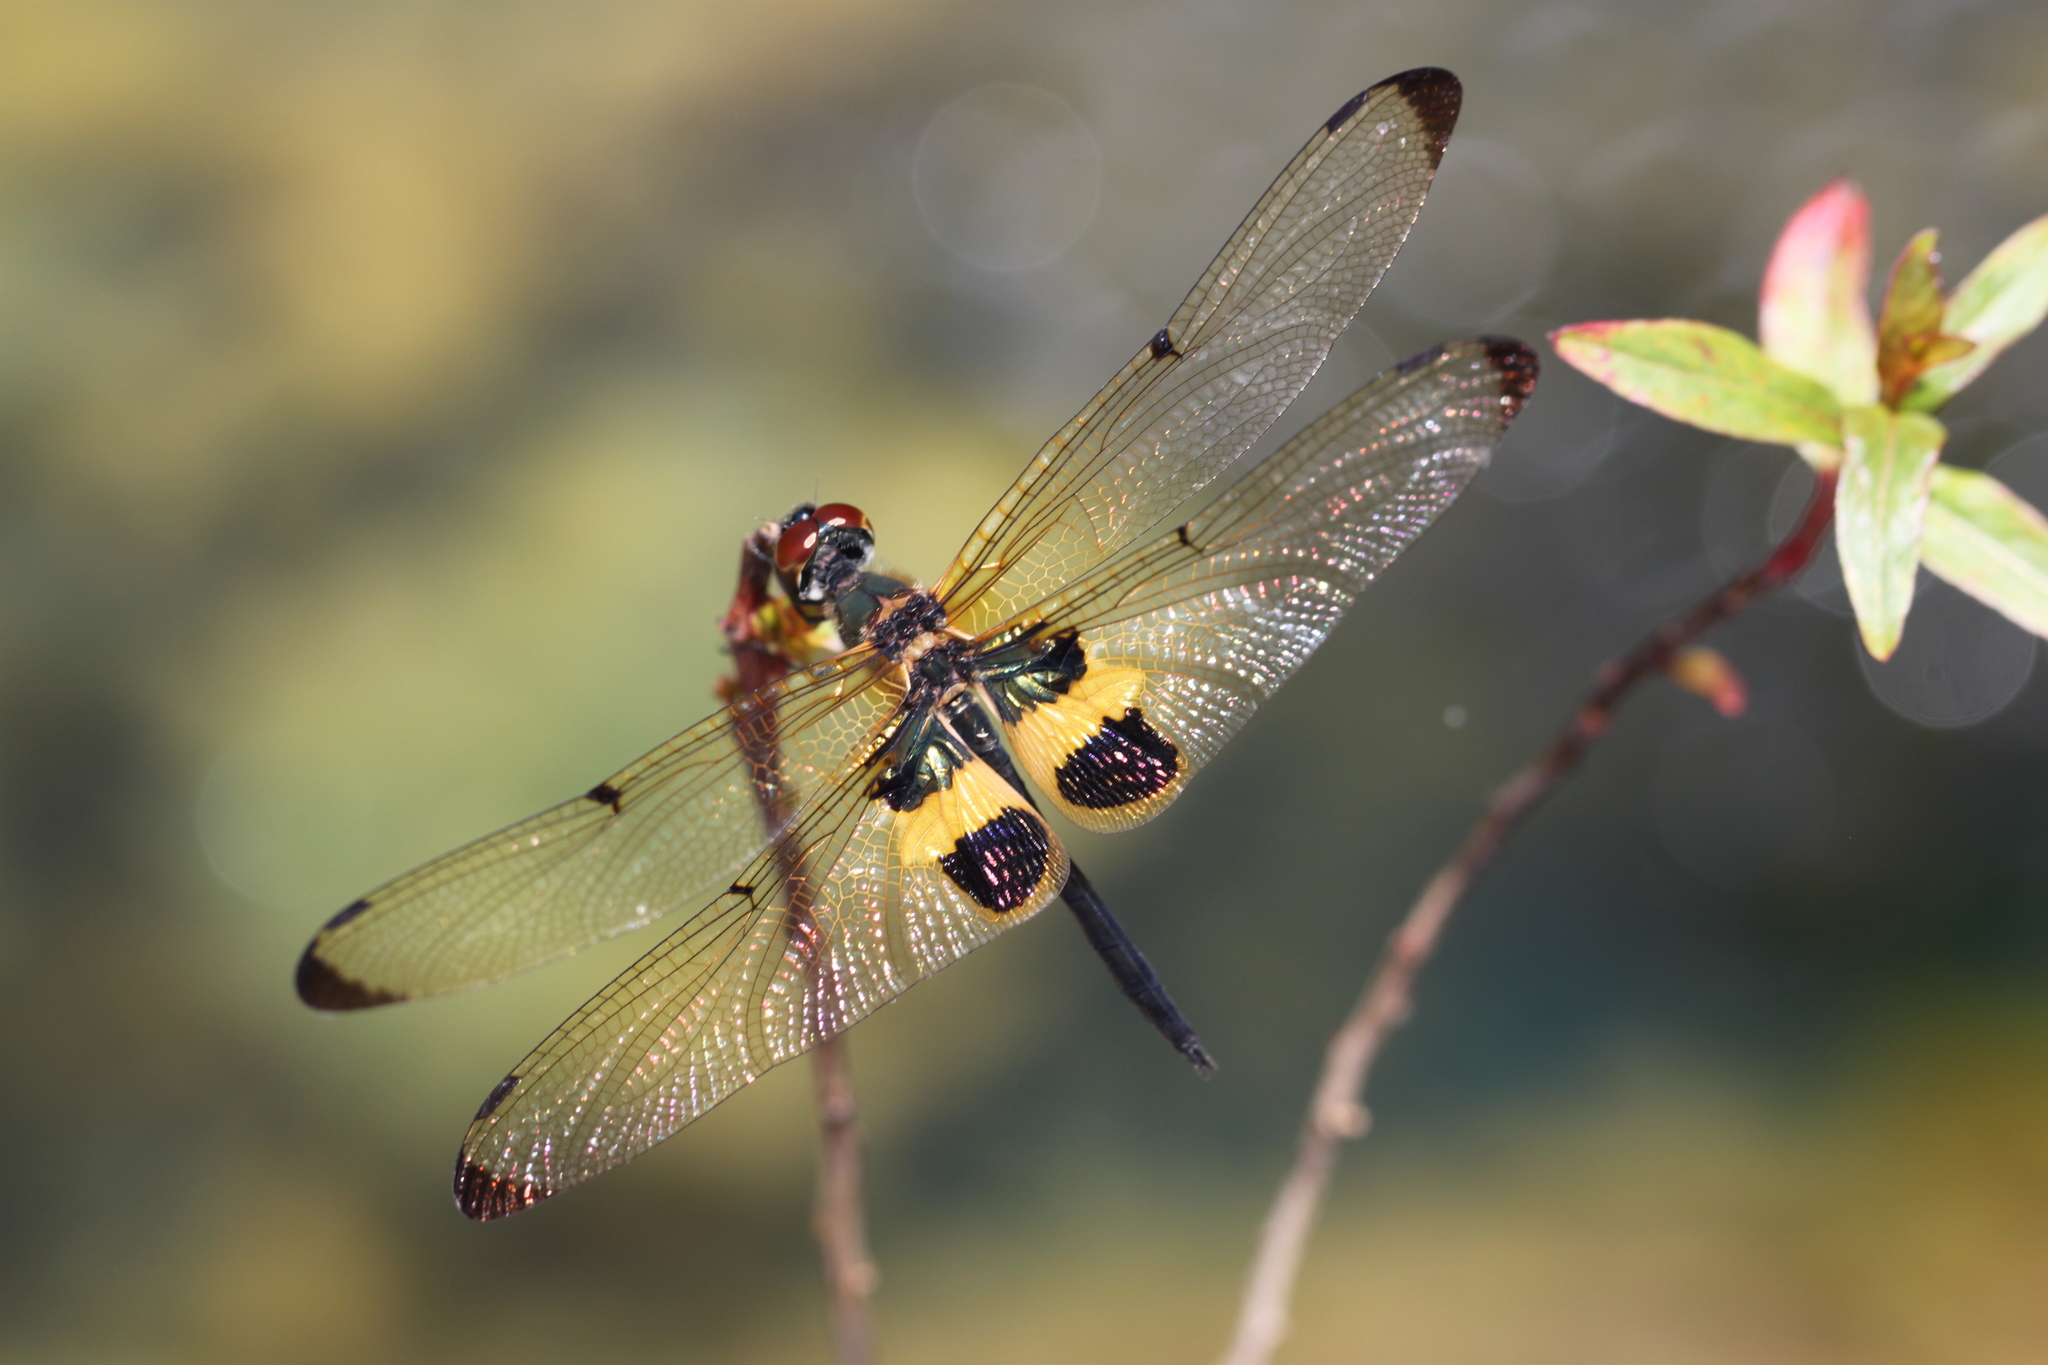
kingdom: Animalia
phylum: Arthropoda
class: Insecta
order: Odonata
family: Libellulidae
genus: Rhyothemis
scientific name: Rhyothemis phyllis
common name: Yellow-barred flutterer
